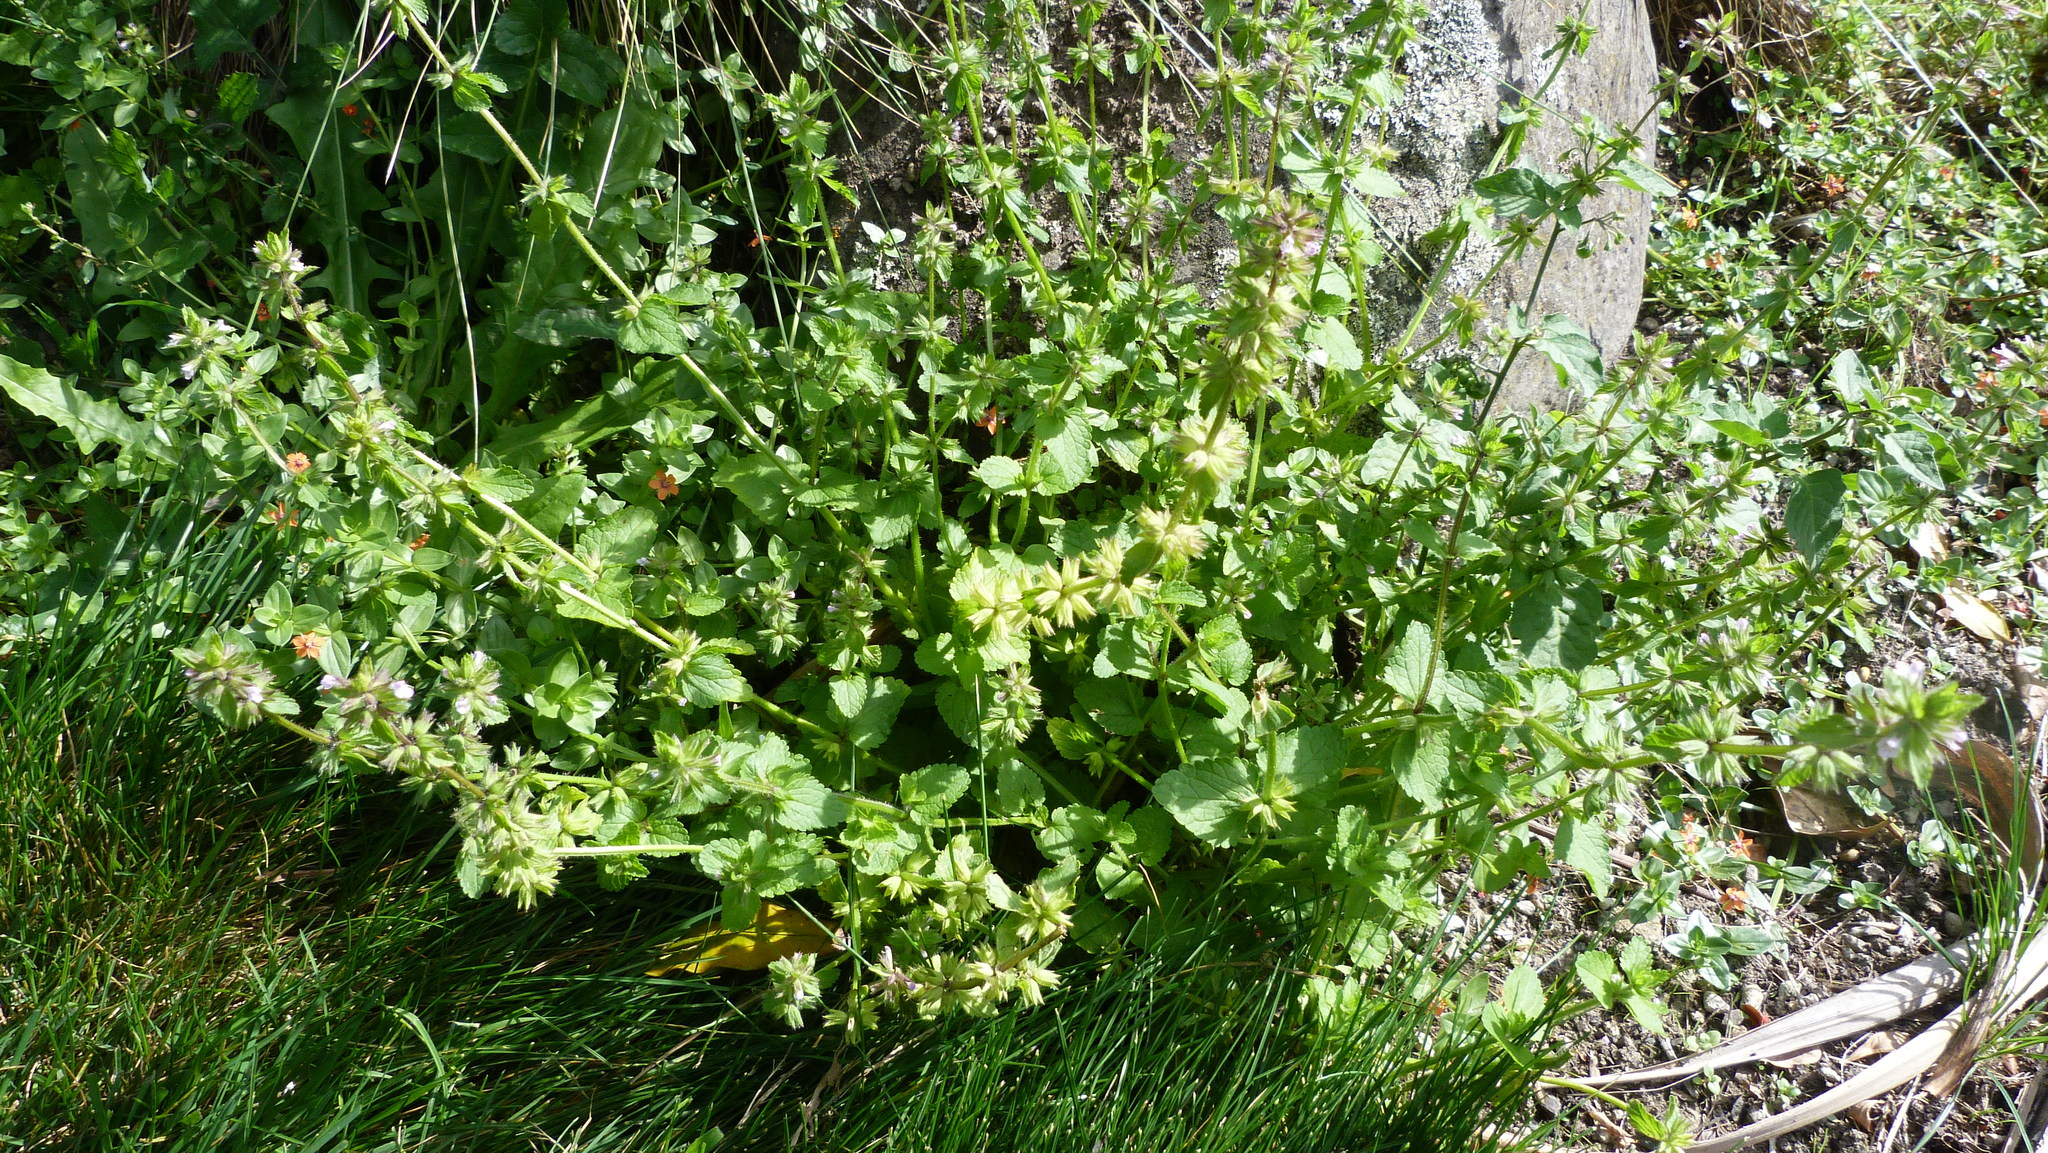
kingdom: Plantae
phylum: Tracheophyta
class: Magnoliopsida
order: Lamiales
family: Lamiaceae
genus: Stachys
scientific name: Stachys arvensis
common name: Field woundwort
